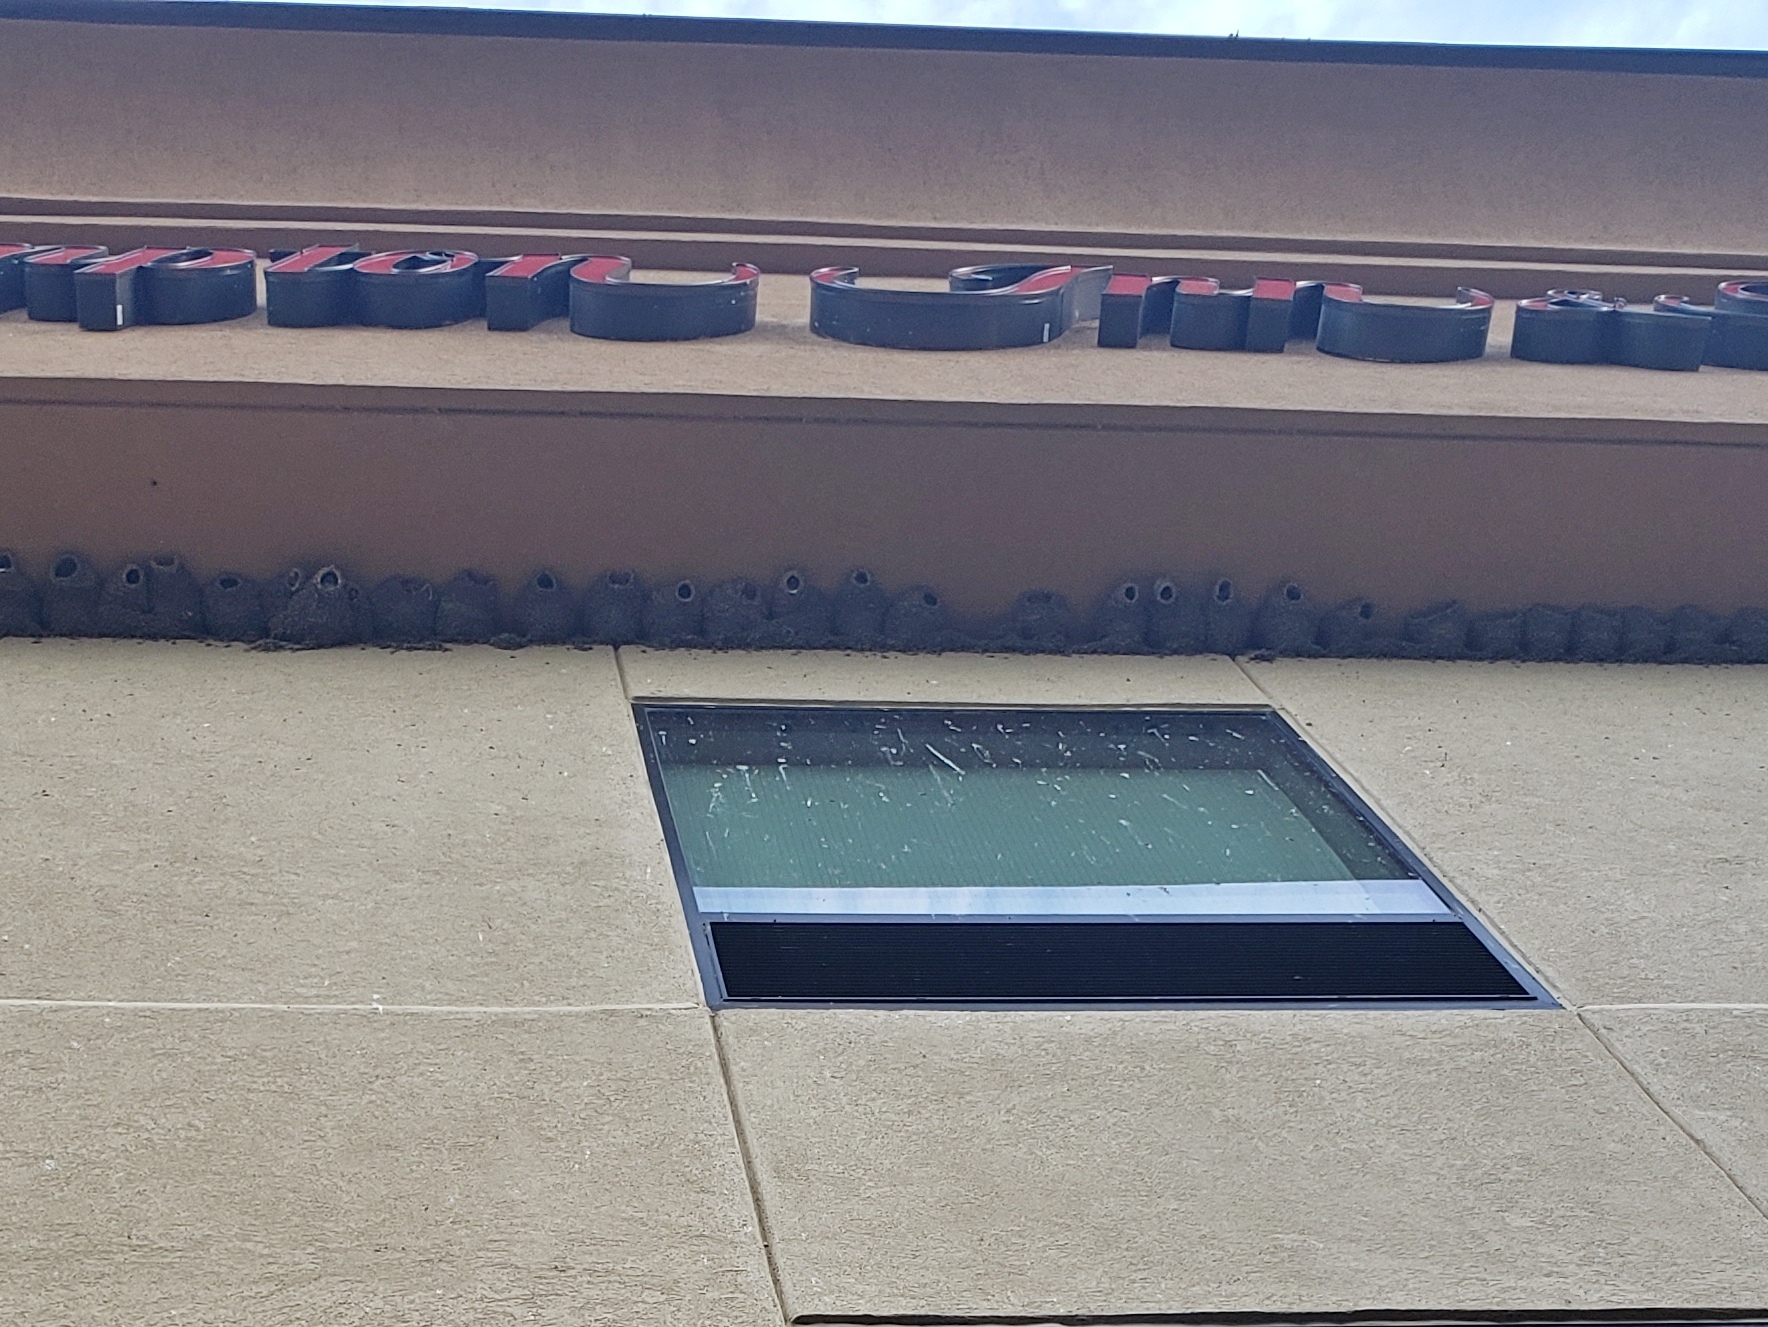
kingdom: Animalia
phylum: Chordata
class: Aves
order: Passeriformes
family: Hirundinidae
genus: Petrochelidon
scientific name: Petrochelidon pyrrhonota
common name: American cliff swallow
